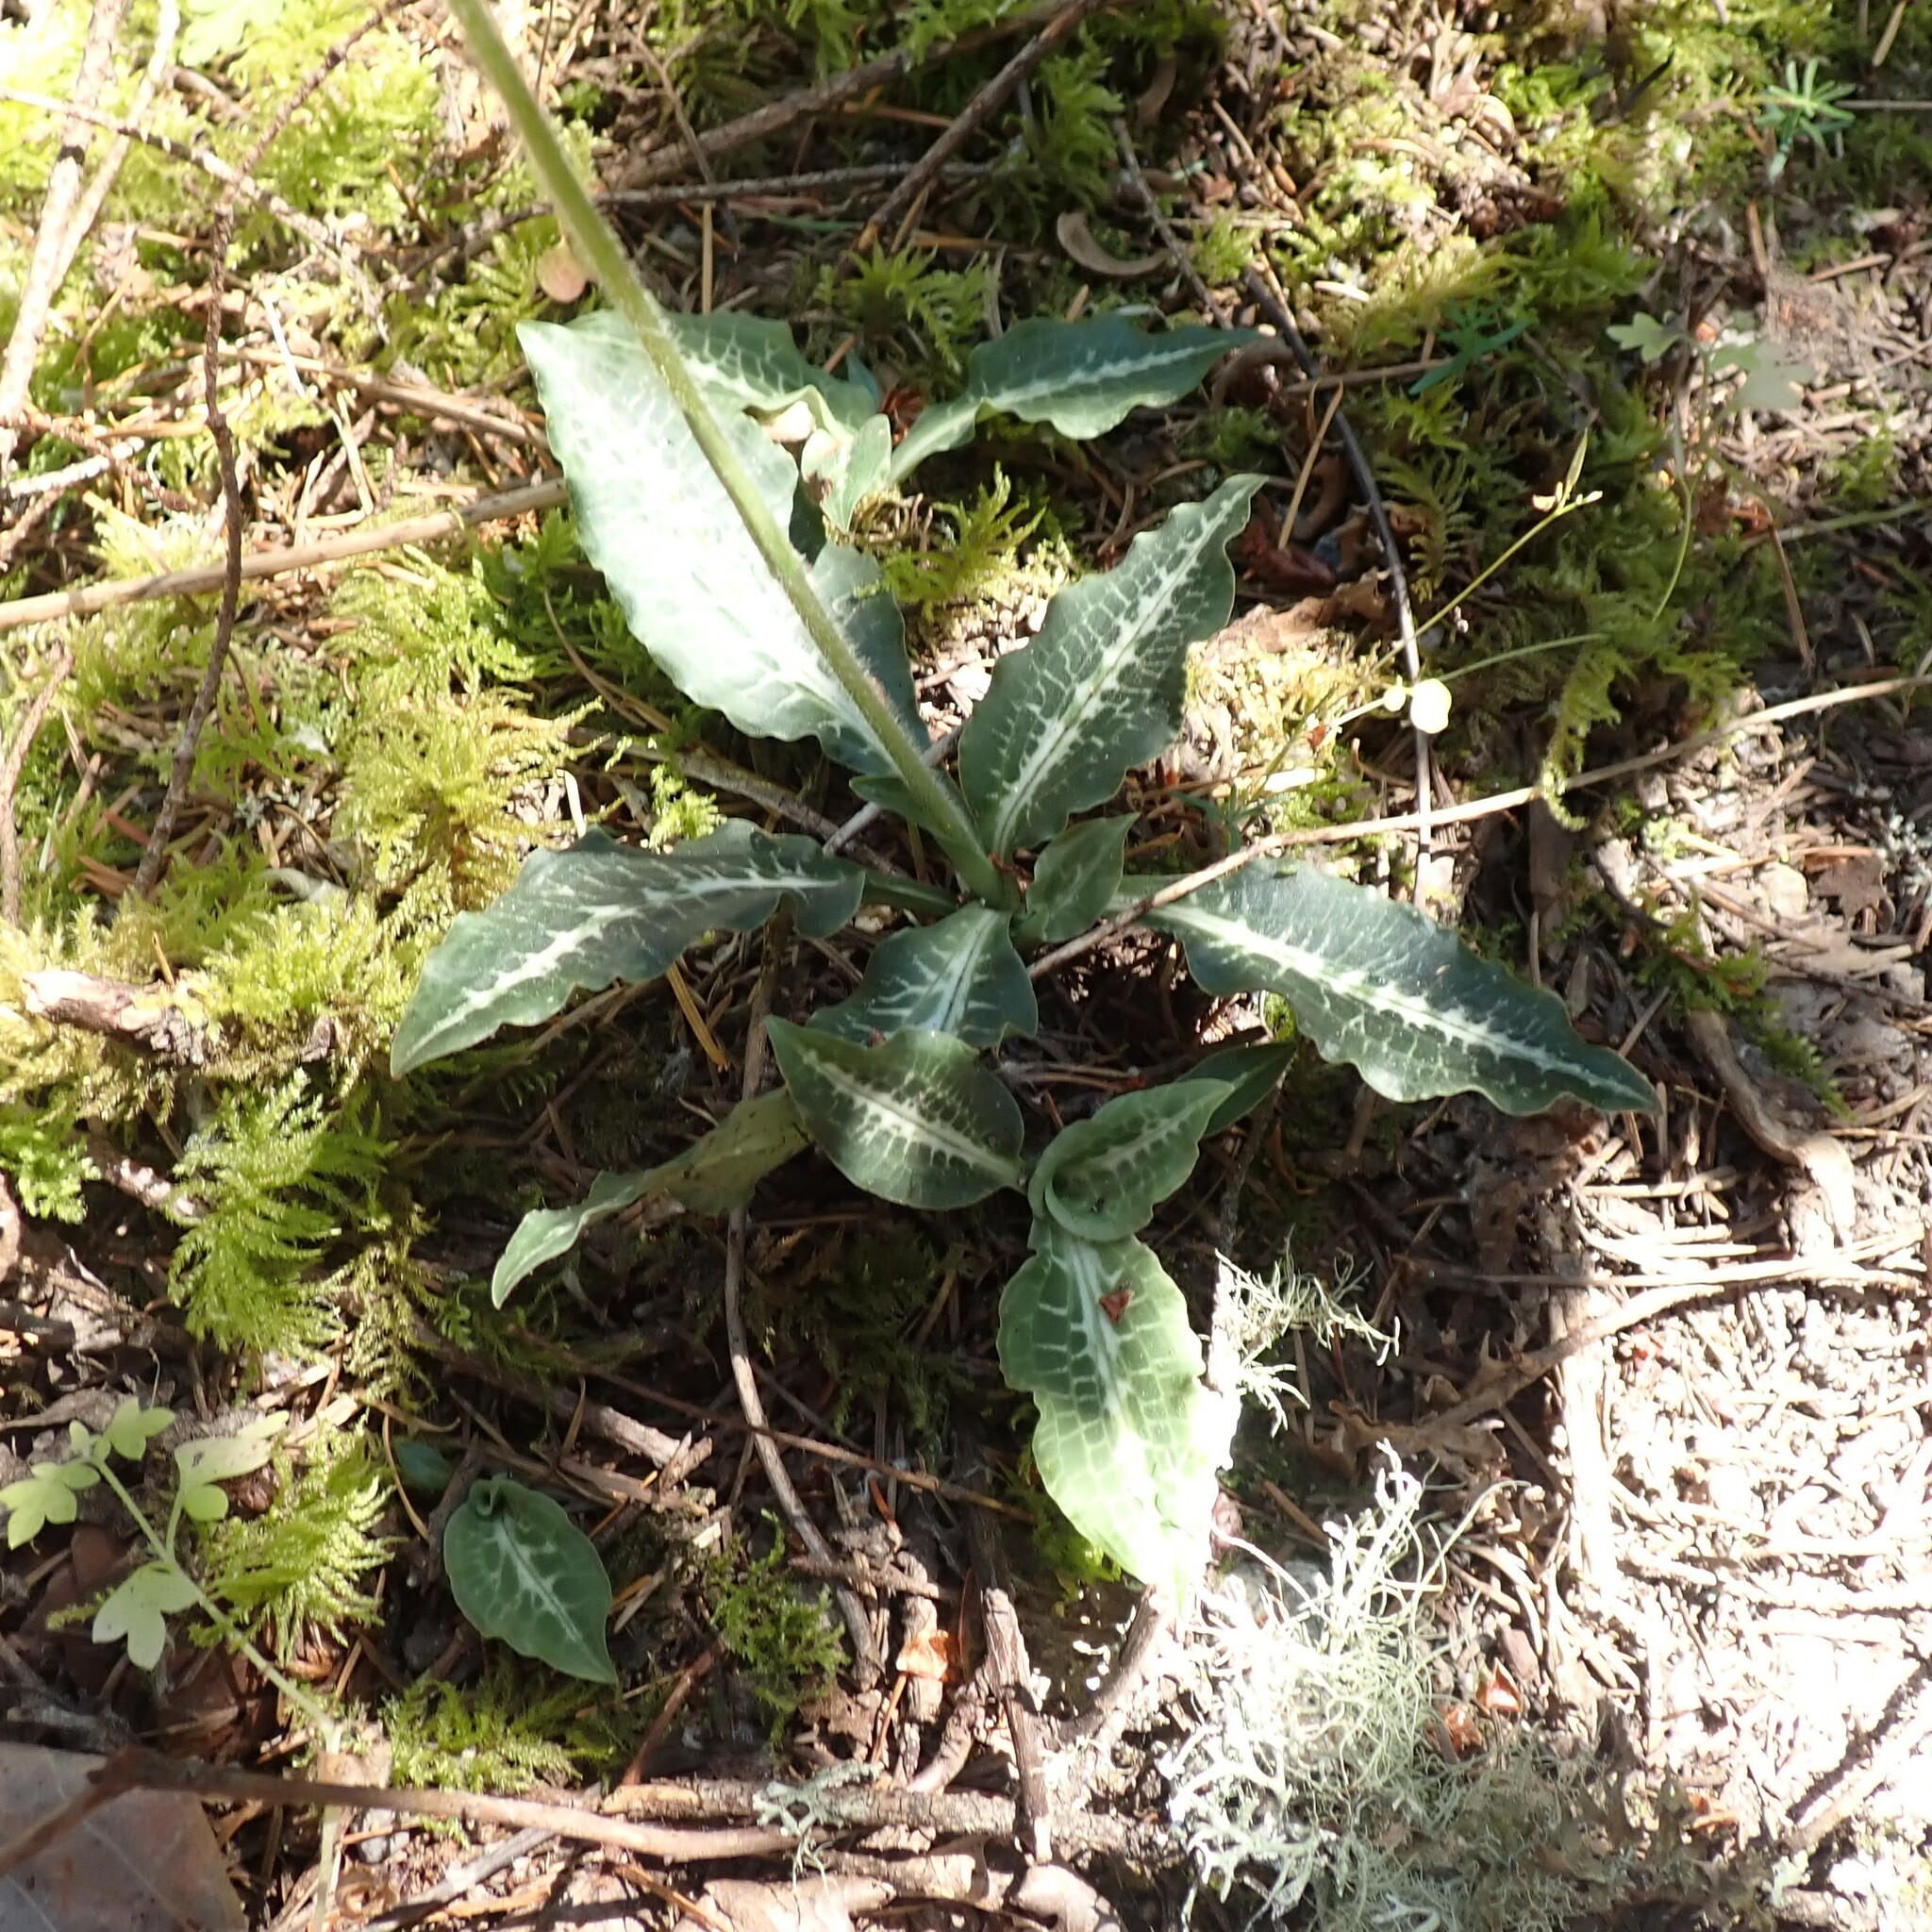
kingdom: Plantae
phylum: Tracheophyta
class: Liliopsida
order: Asparagales
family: Orchidaceae
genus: Goodyera
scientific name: Goodyera oblongifolia
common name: Giant rattlesnake-plantain
